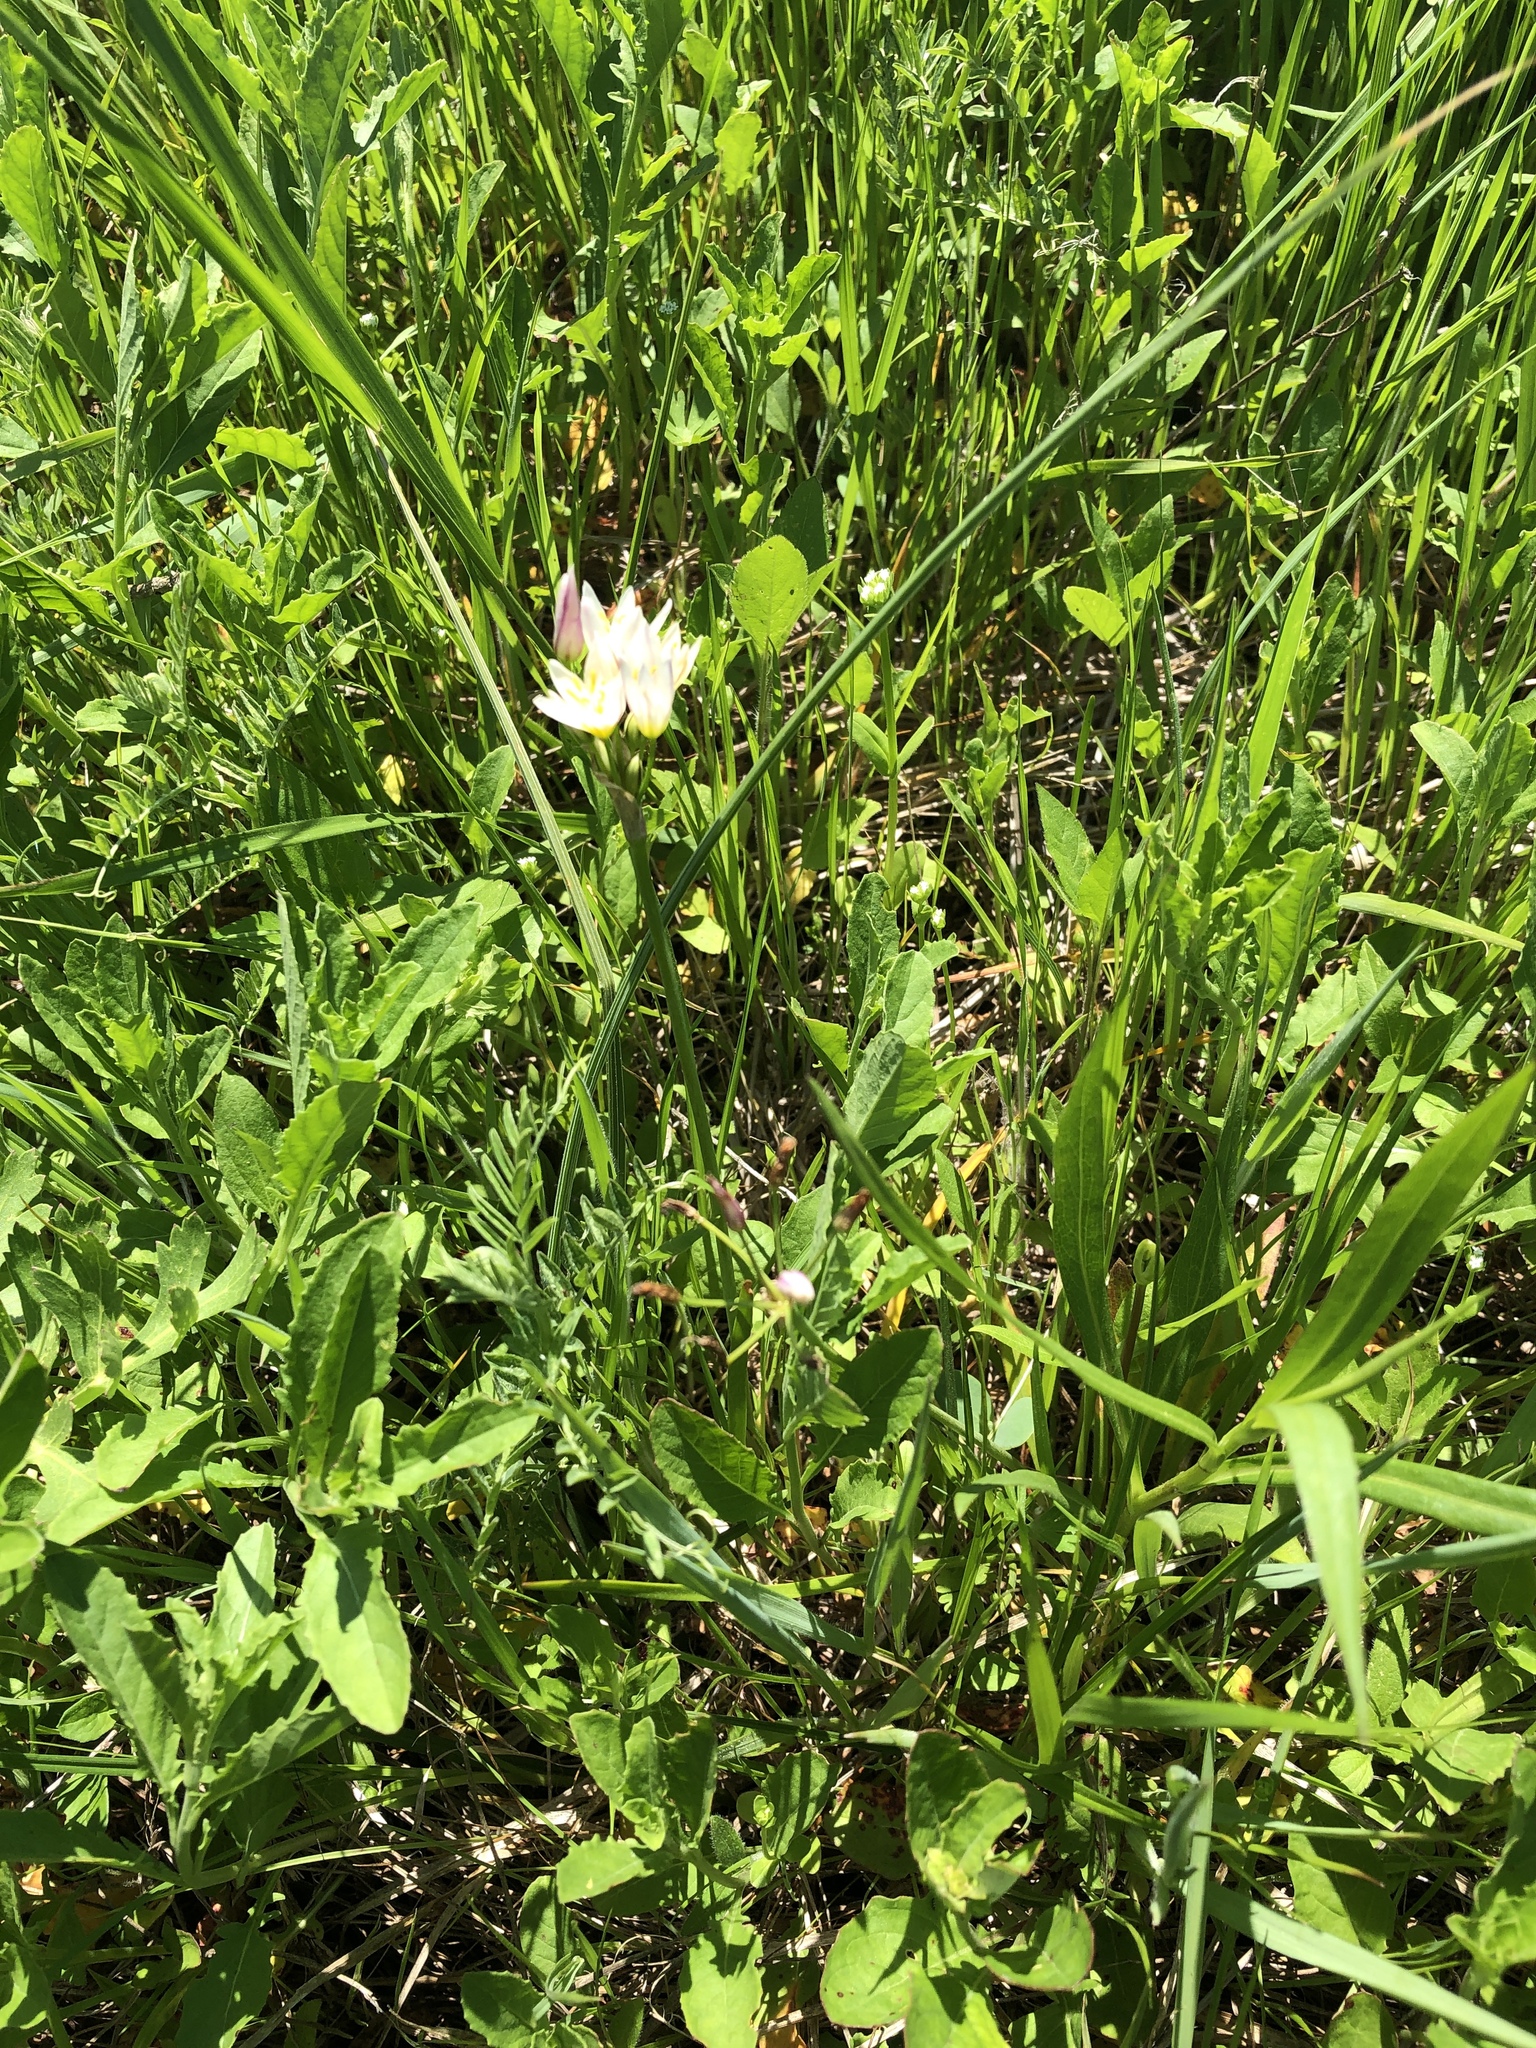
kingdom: Plantae
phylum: Tracheophyta
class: Liliopsida
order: Asparagales
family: Amaryllidaceae
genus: Nothoscordum
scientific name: Nothoscordum bivalve
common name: Crow-poison
